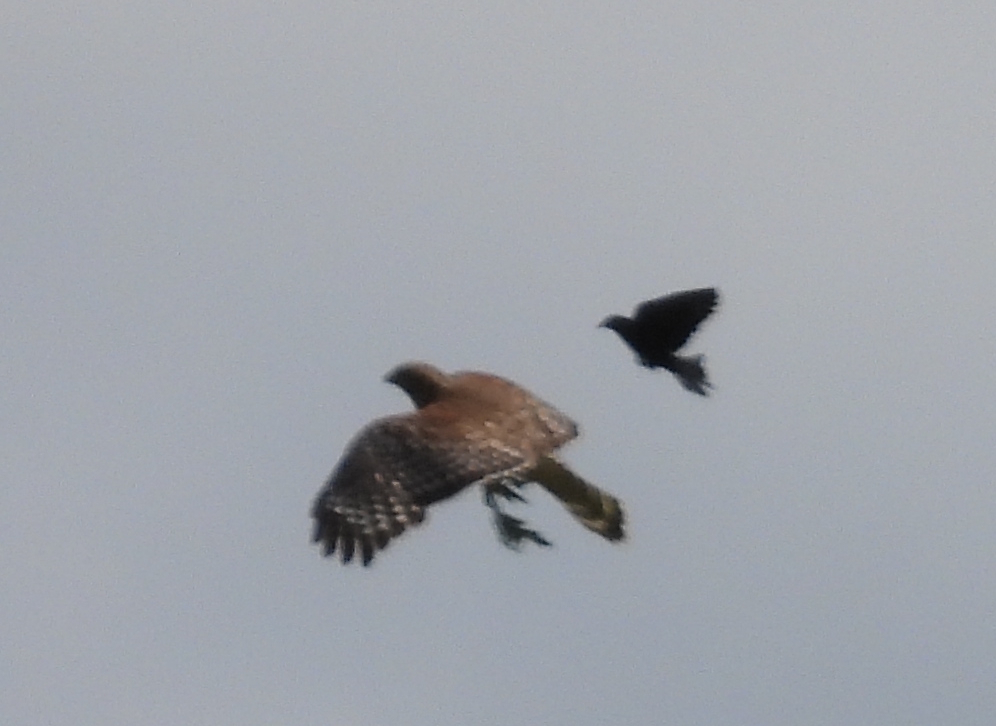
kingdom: Animalia
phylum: Chordata
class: Aves
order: Accipitriformes
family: Accipitridae
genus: Buteo
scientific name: Buteo lineatus
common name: Red-shouldered hawk
